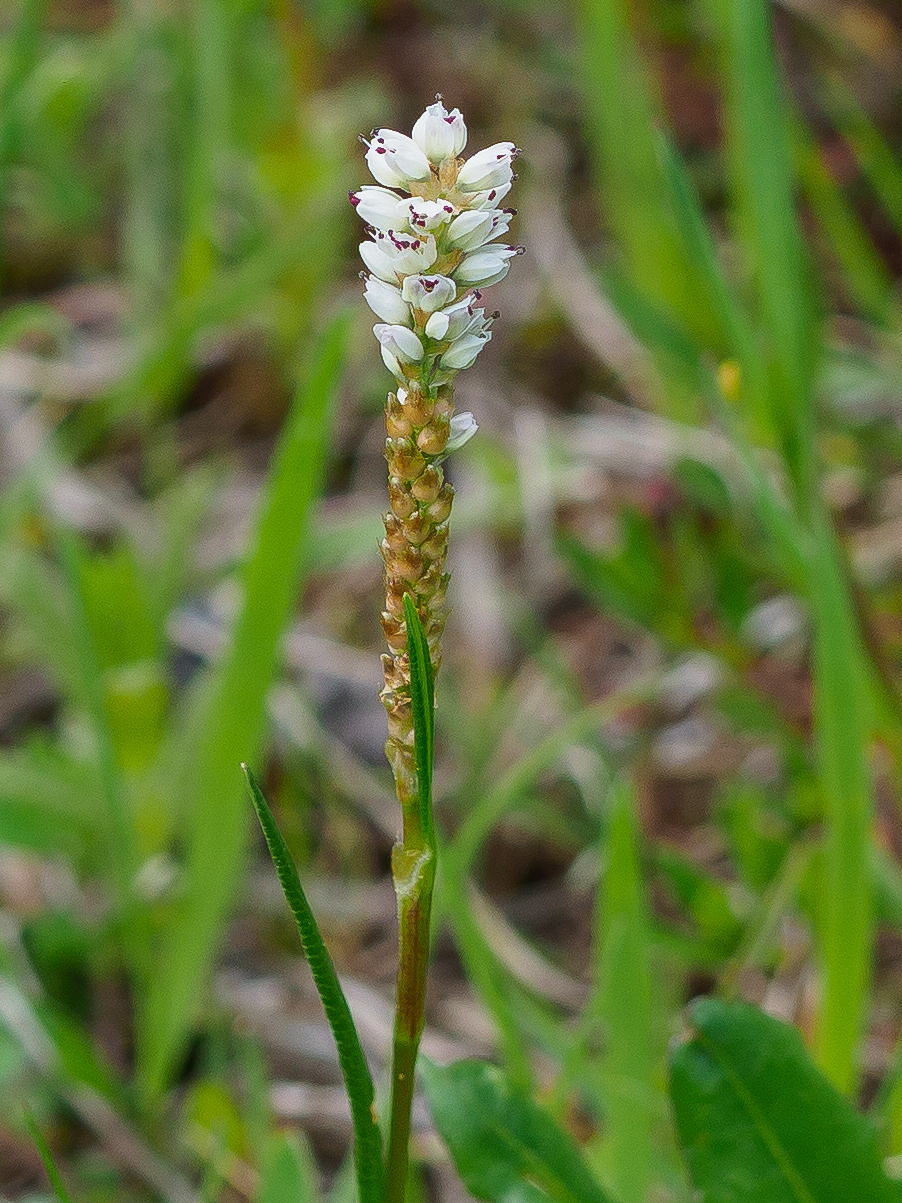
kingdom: Plantae
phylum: Tracheophyta
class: Magnoliopsida
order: Caryophyllales
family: Polygonaceae
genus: Bistorta
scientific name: Bistorta vivipara
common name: Alpine bistort
